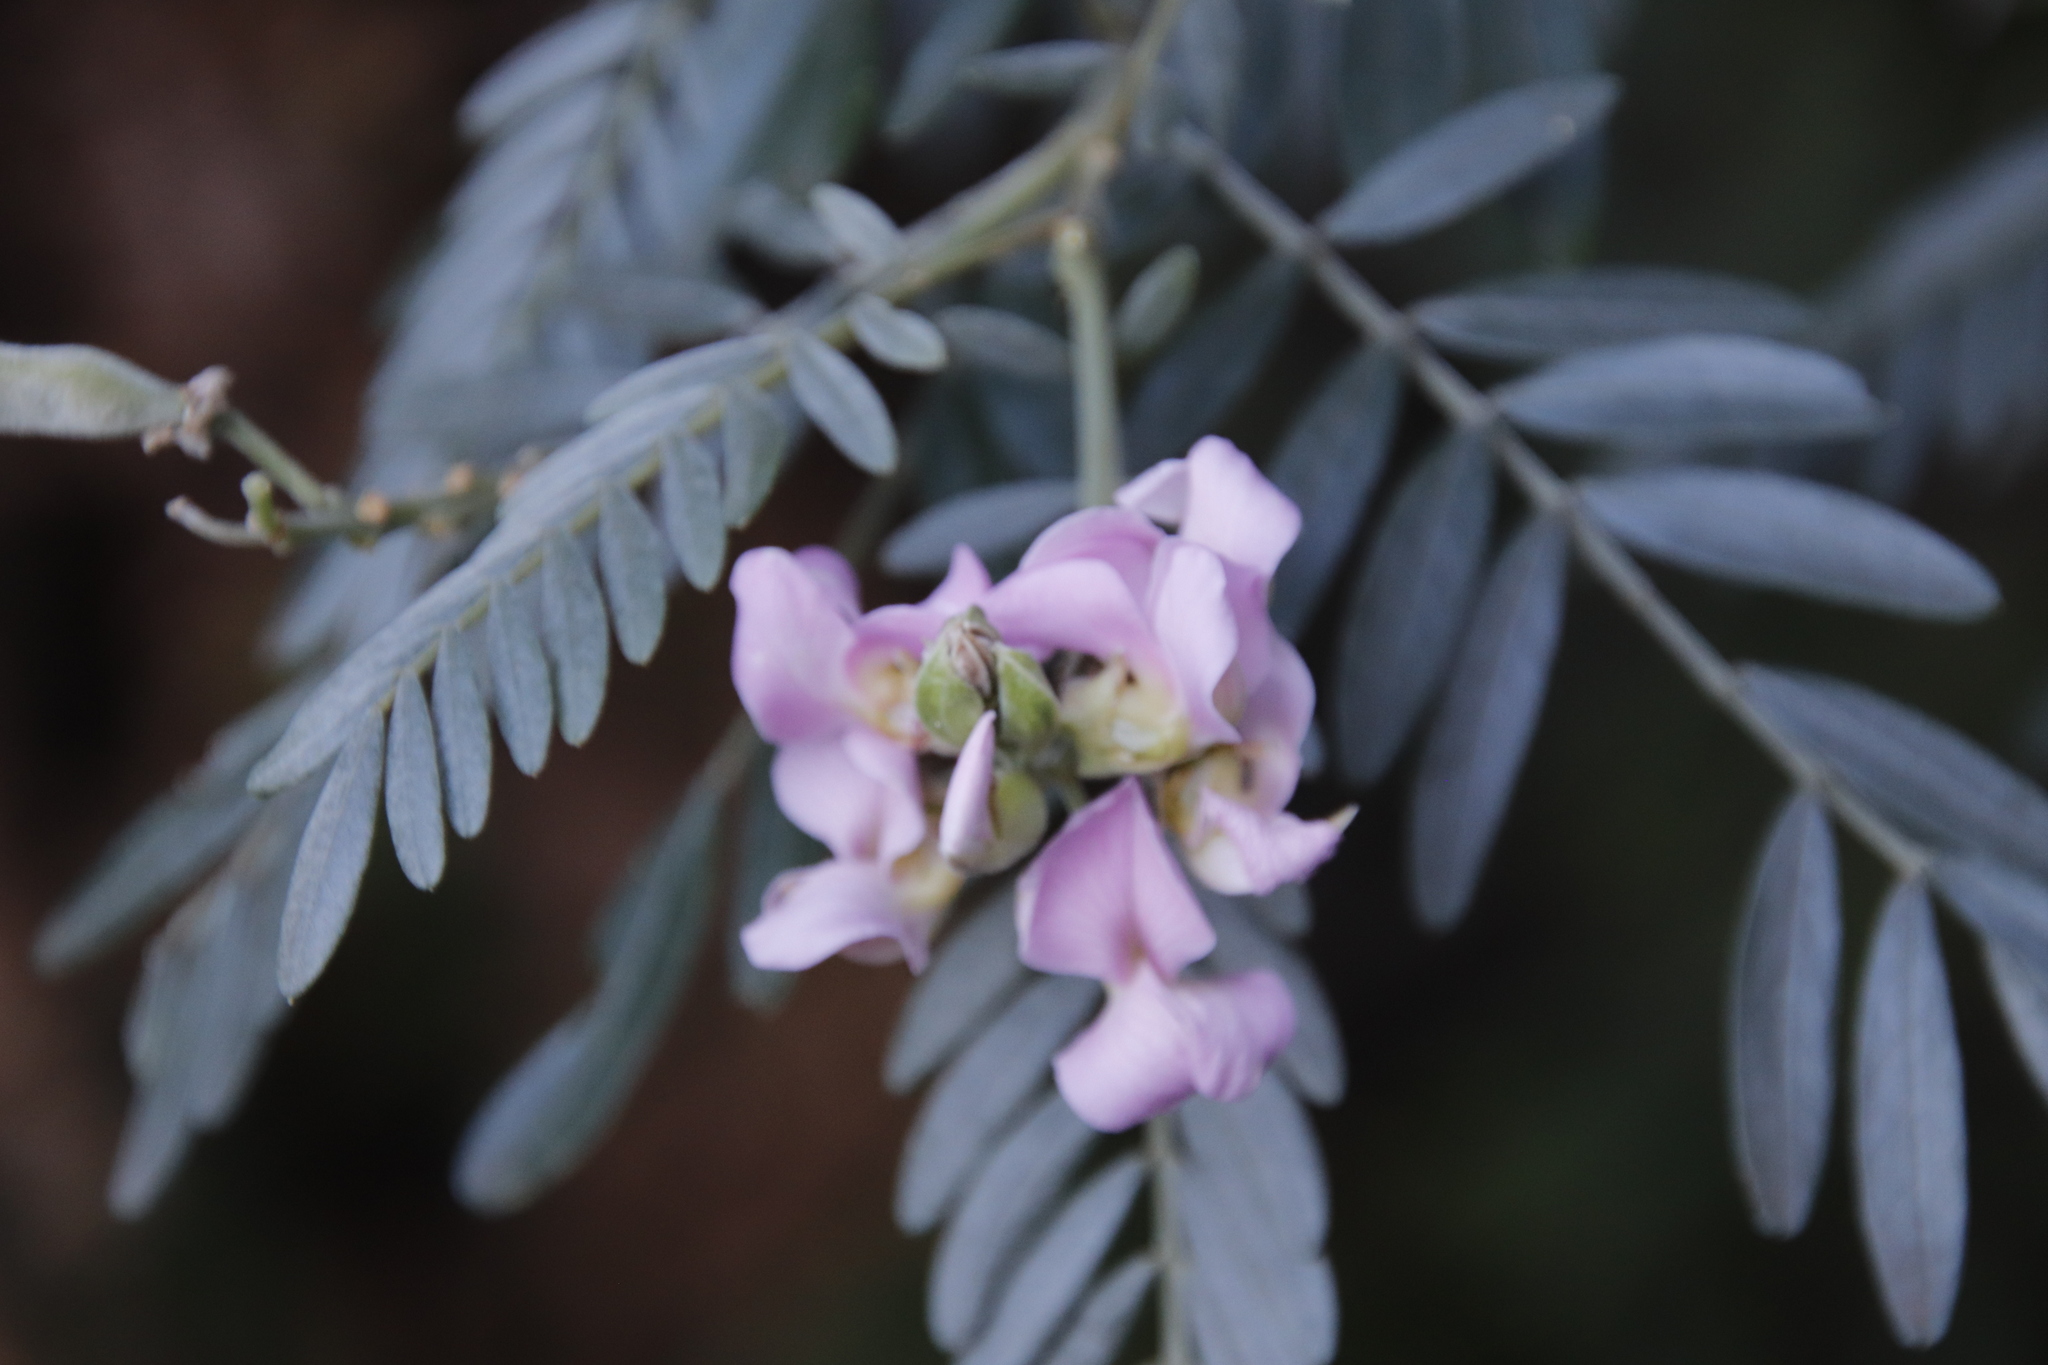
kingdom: Plantae
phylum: Tracheophyta
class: Magnoliopsida
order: Fabales
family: Fabaceae
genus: Virgilia
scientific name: Virgilia oroboides
